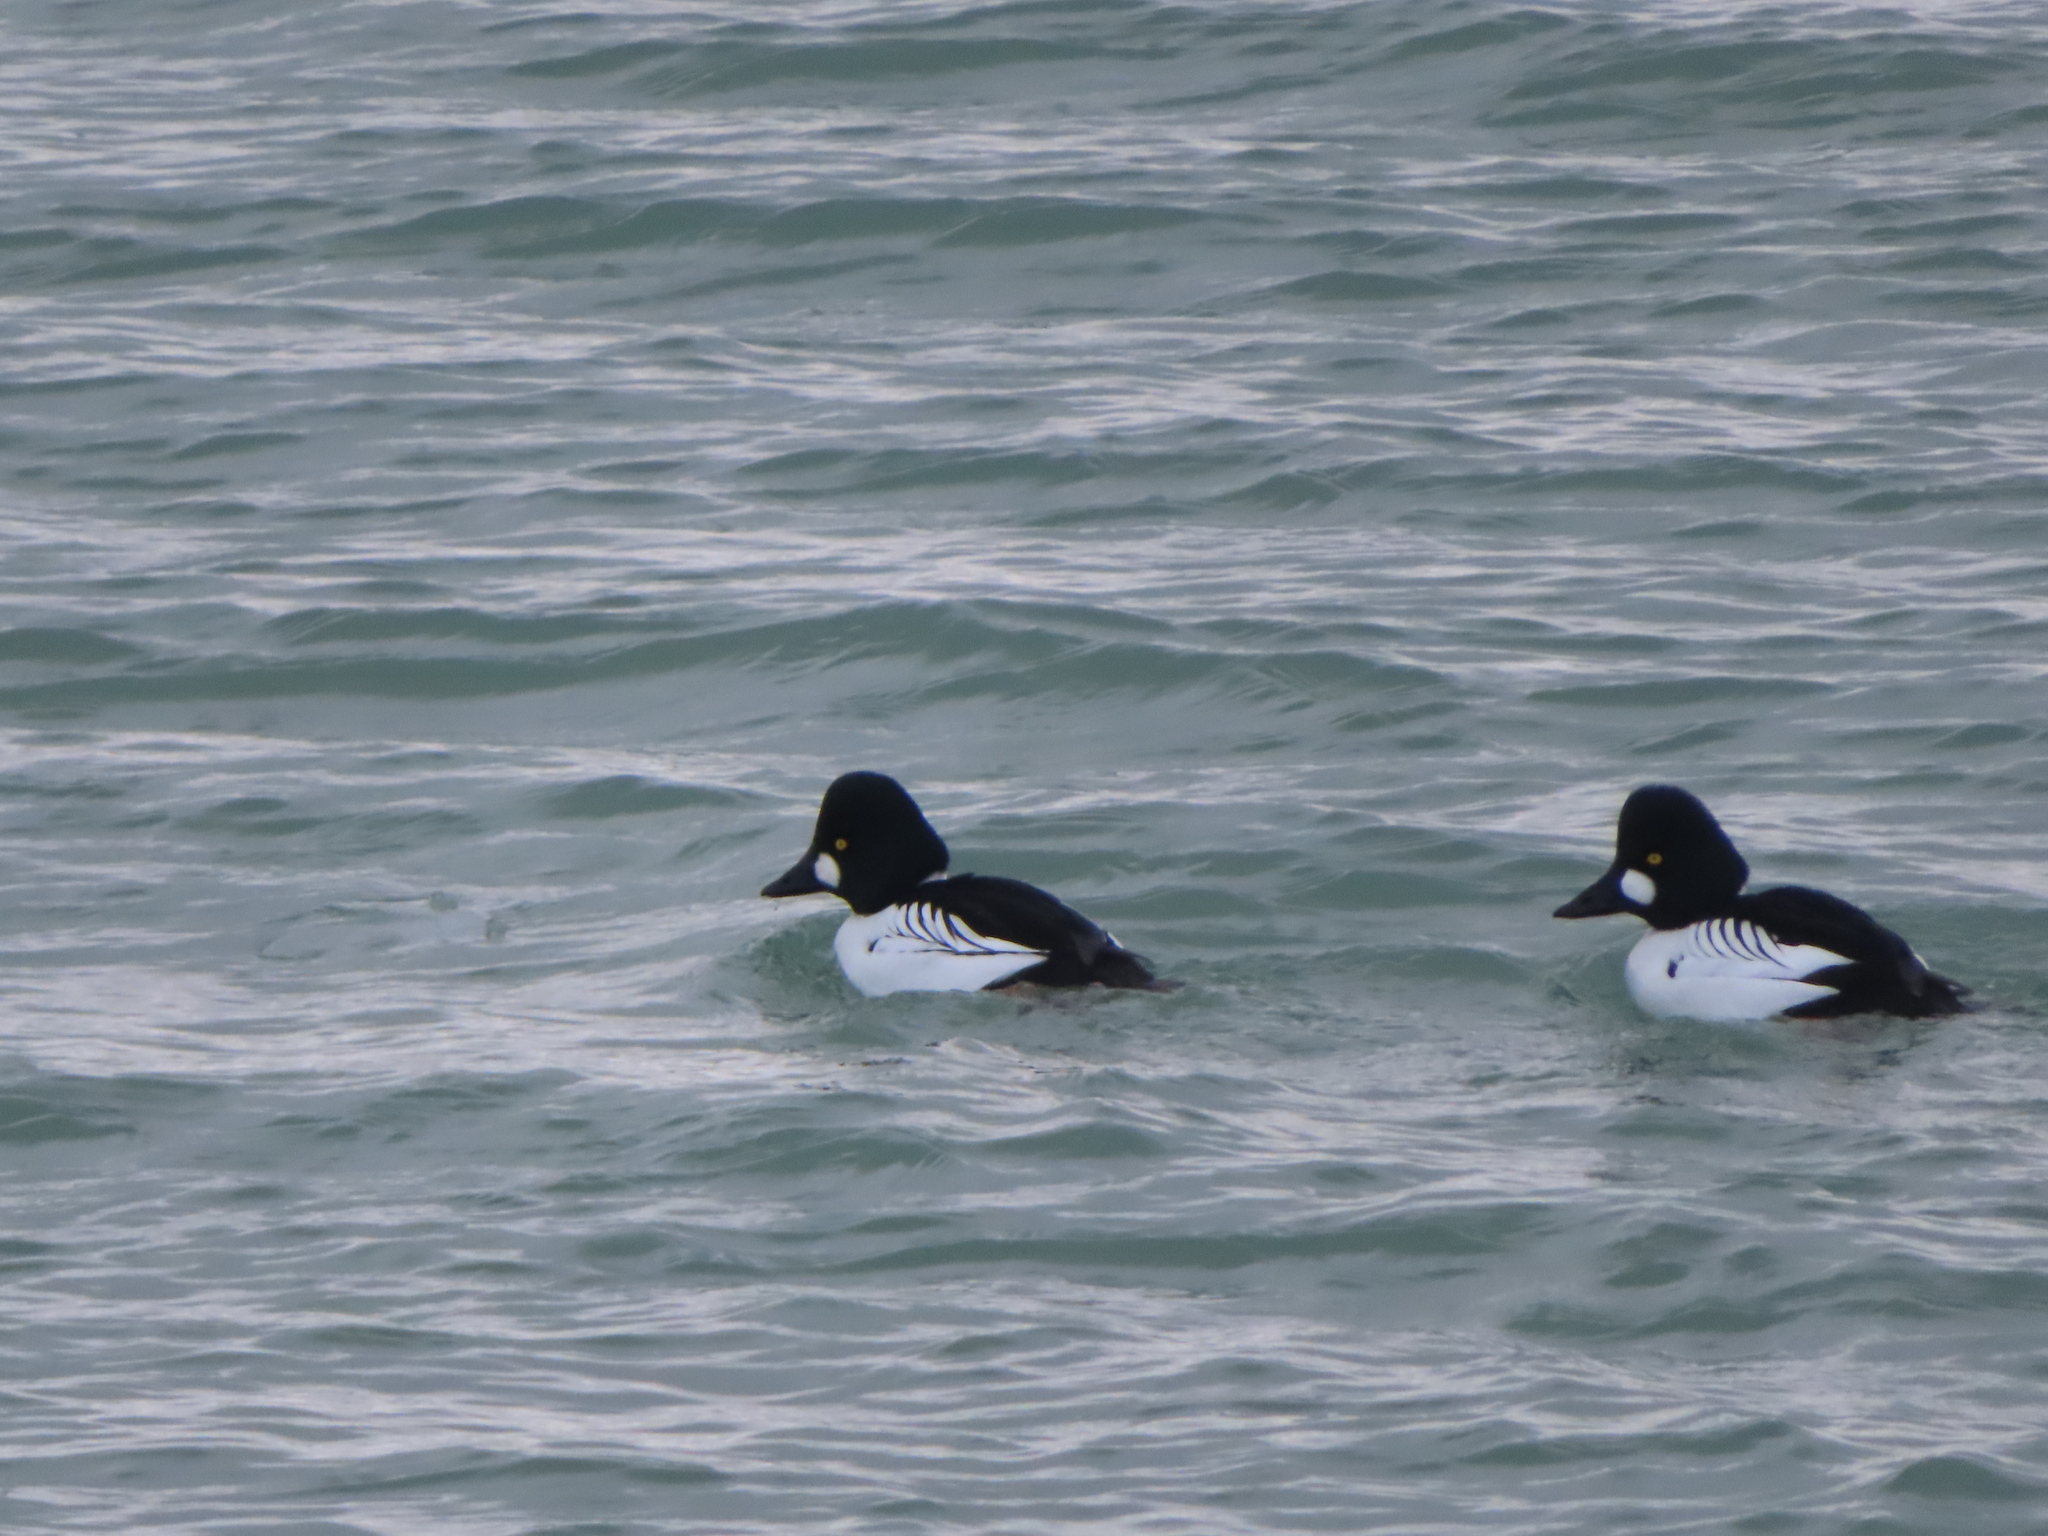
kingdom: Animalia
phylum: Chordata
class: Aves
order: Anseriformes
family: Anatidae
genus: Bucephala
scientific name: Bucephala clangula
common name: Common goldeneye
